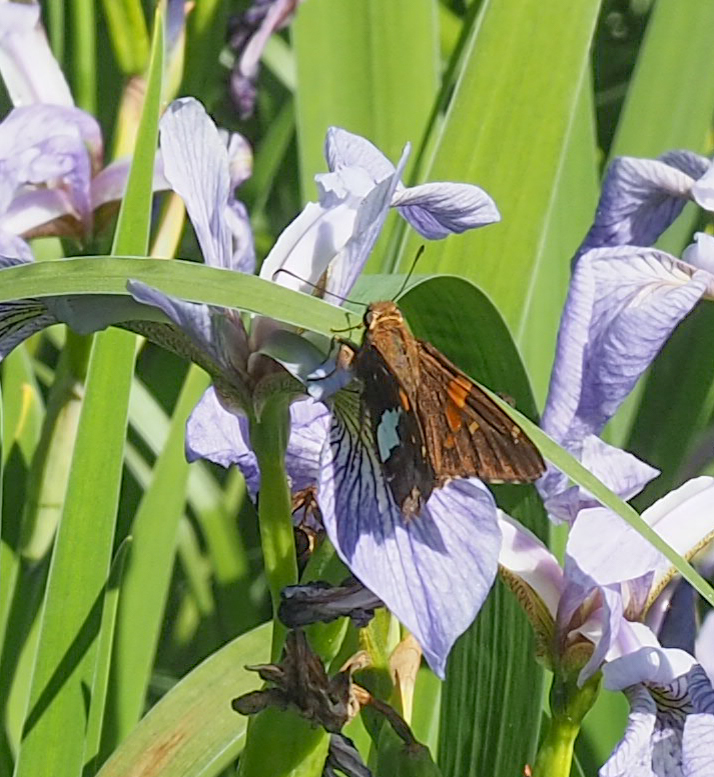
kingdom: Animalia
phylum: Arthropoda
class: Insecta
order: Lepidoptera
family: Hesperiidae
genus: Epargyreus
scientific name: Epargyreus clarus
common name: Silver-spotted skipper
